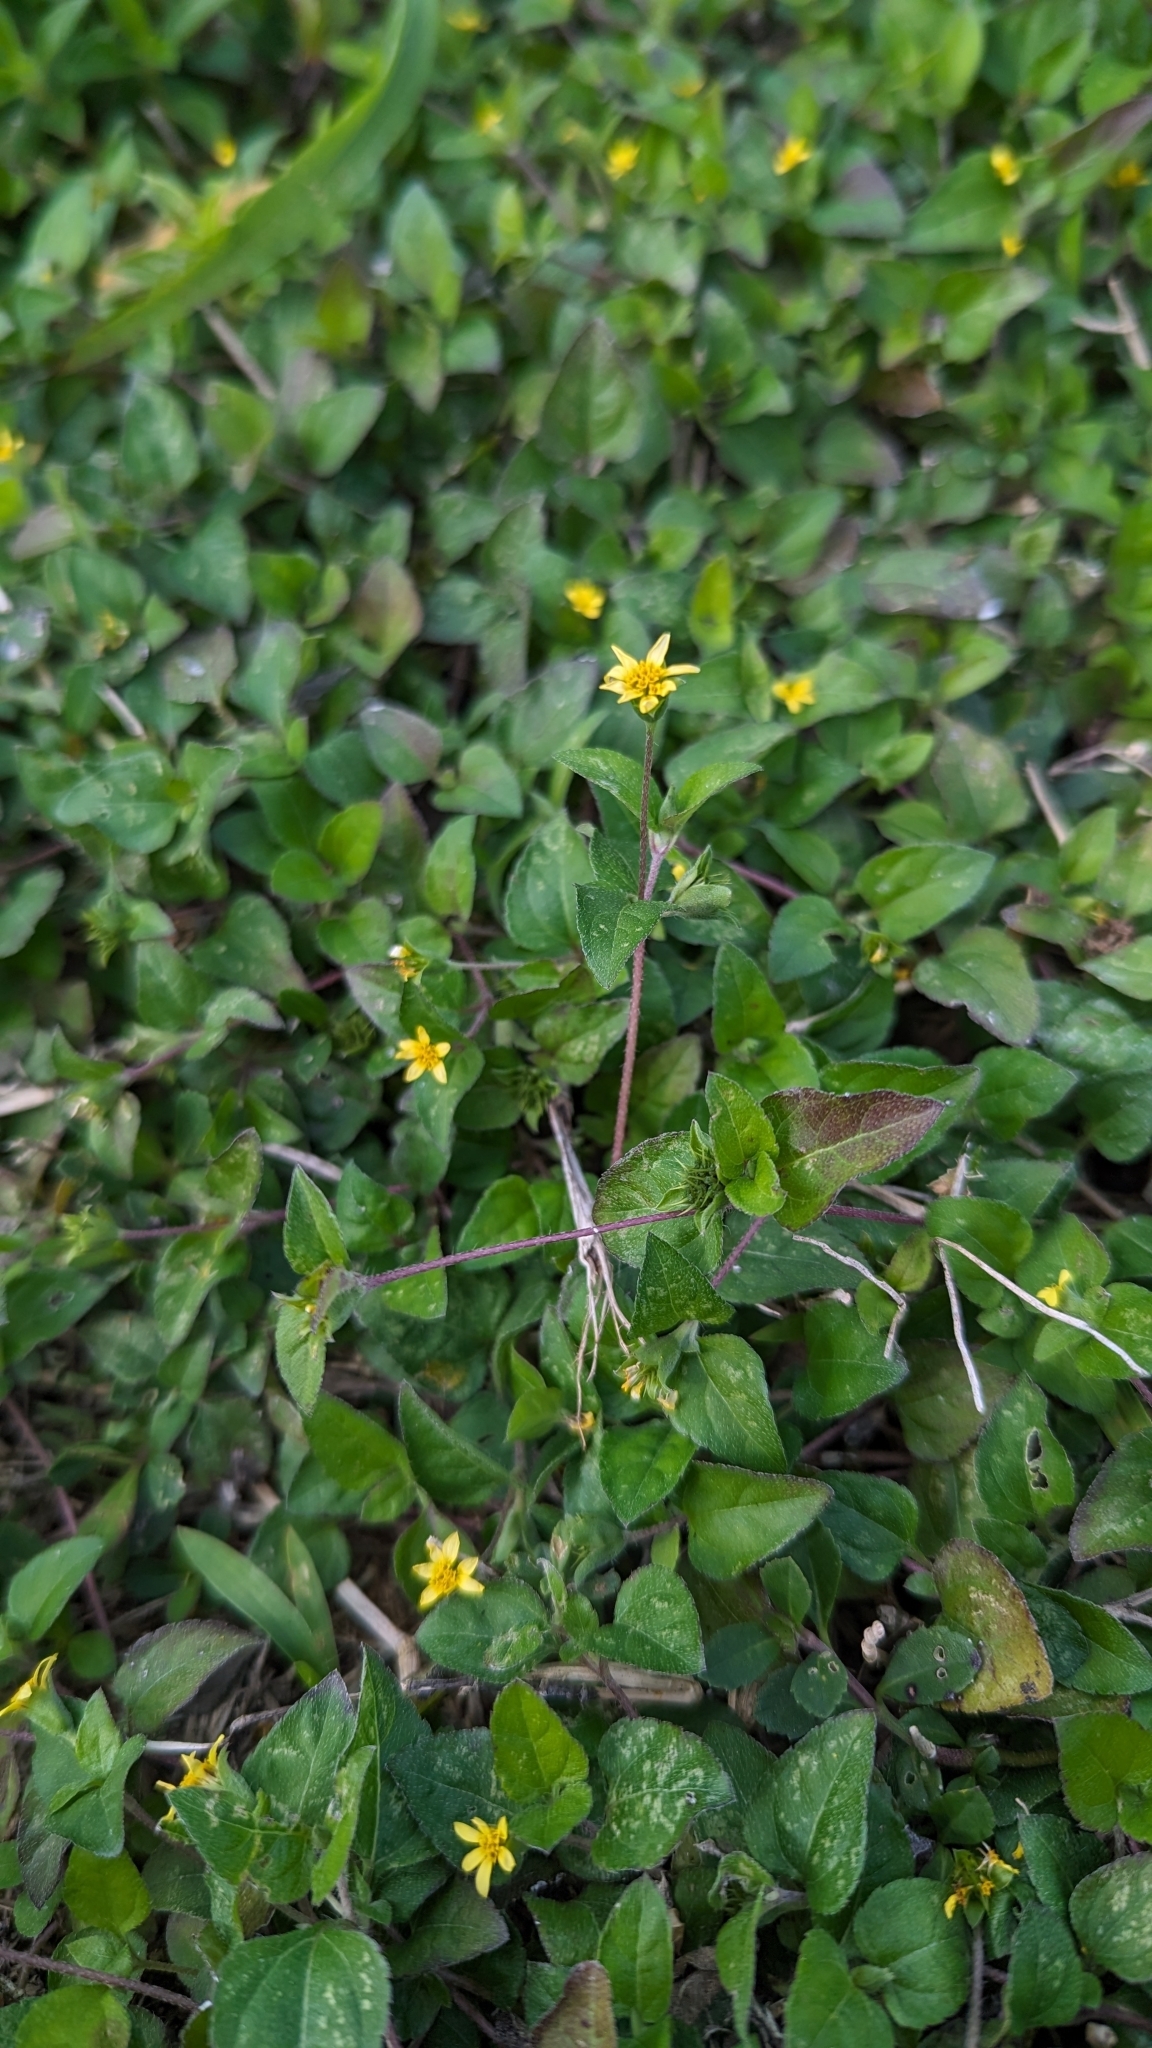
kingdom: Plantae
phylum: Tracheophyta
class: Magnoliopsida
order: Asterales
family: Asteraceae
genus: Calyptocarpus
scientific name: Calyptocarpus vialis
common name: Straggler daisy
